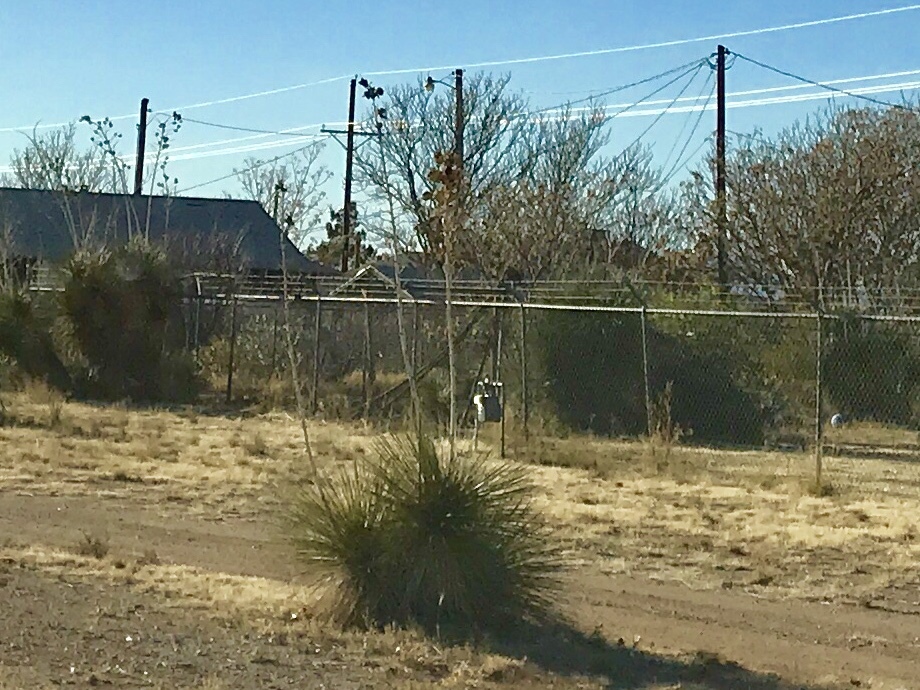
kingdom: Plantae
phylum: Tracheophyta
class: Liliopsida
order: Asparagales
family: Asparagaceae
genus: Yucca
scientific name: Yucca elata
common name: Palmella
